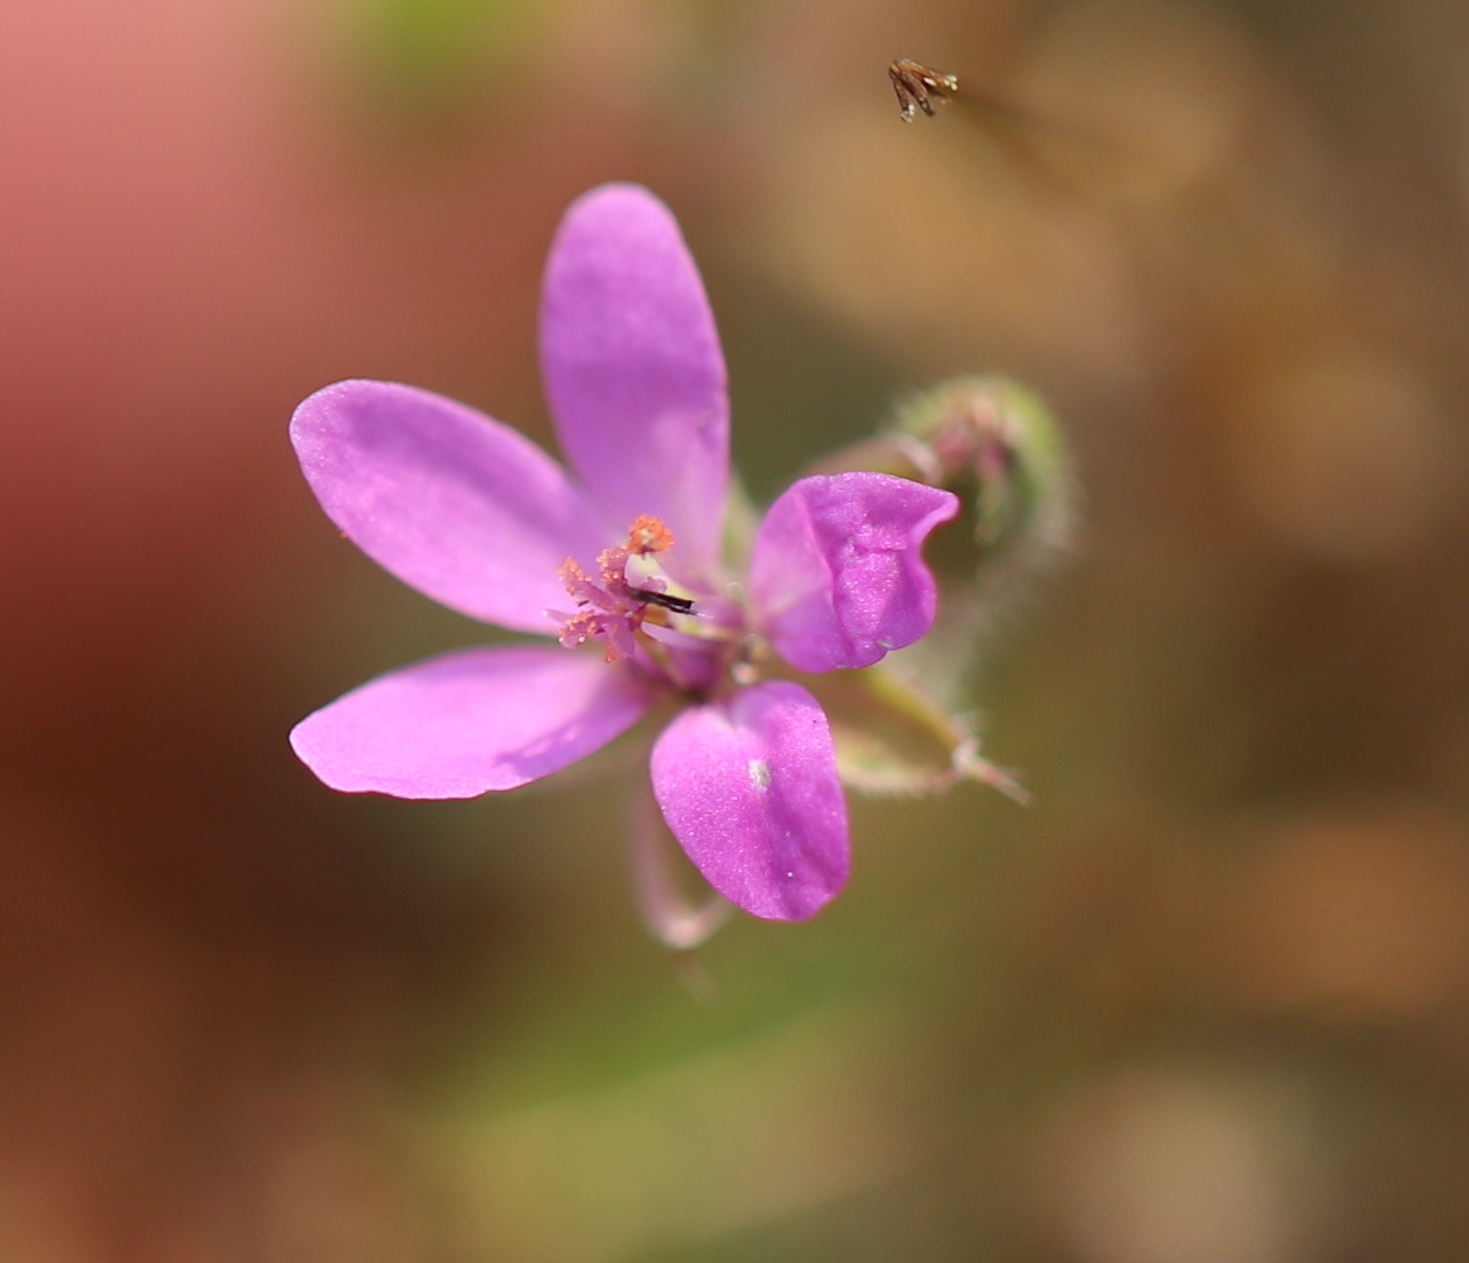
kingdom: Plantae
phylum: Tracheophyta
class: Magnoliopsida
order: Geraniales
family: Geraniaceae
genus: Erodium
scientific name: Erodium cicutarium
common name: Common stork's-bill
